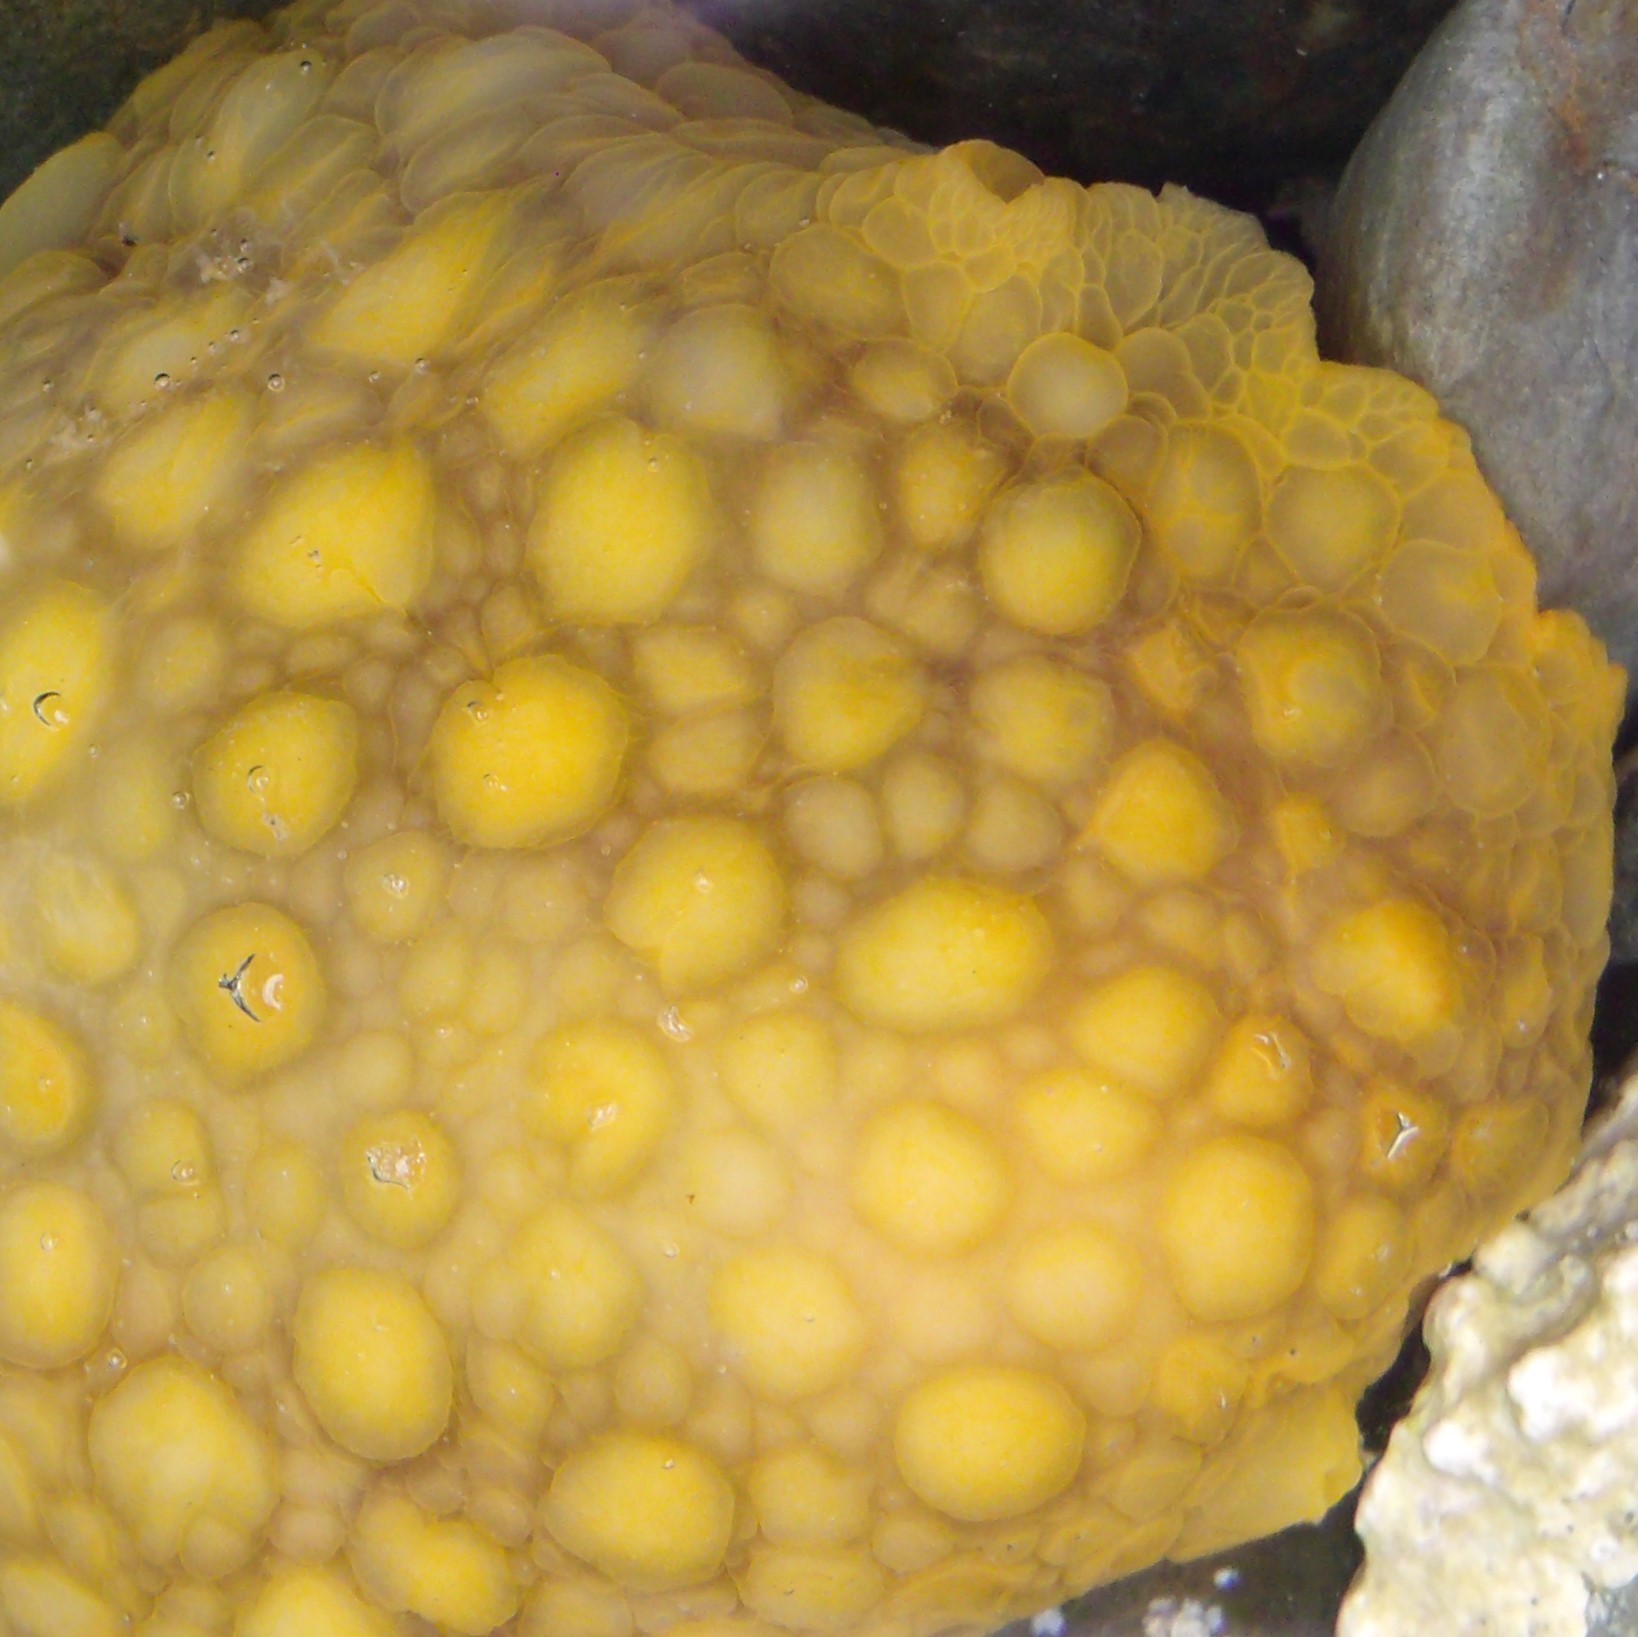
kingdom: Animalia
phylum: Mollusca
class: Gastropoda
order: Nudibranchia
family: Dorididae
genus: Doris
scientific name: Doris wellingtonensis
